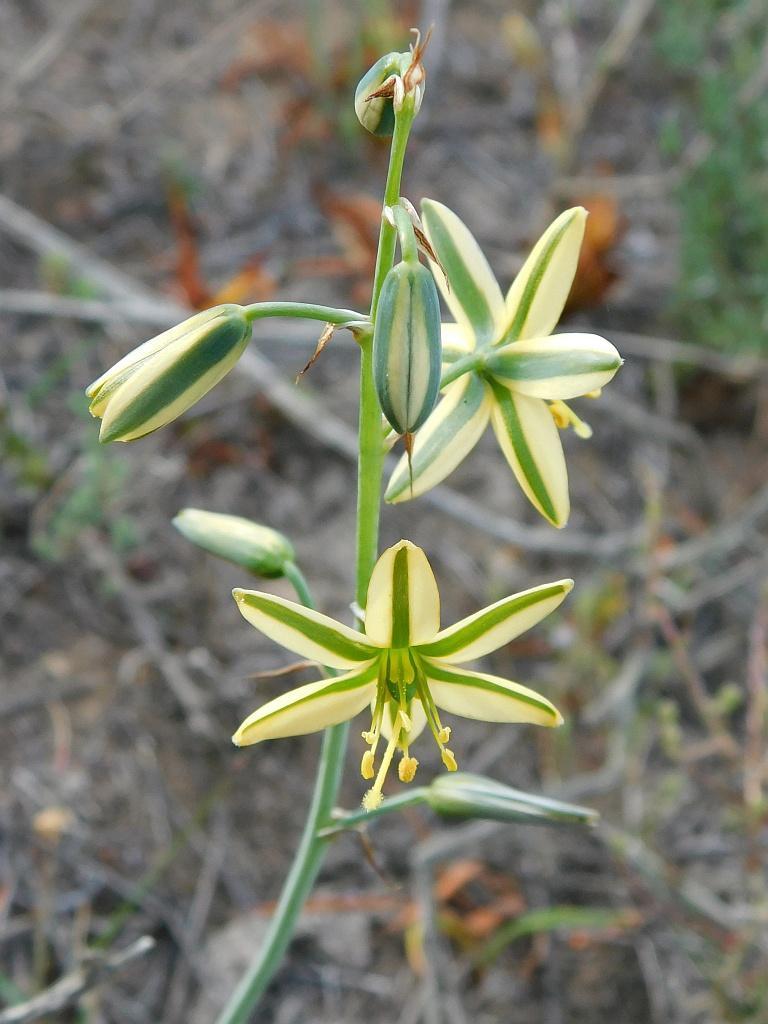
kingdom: Plantae
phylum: Tracheophyta
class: Liliopsida
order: Asparagales
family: Asparagaceae
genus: Albuca
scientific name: Albuca suaveolens
